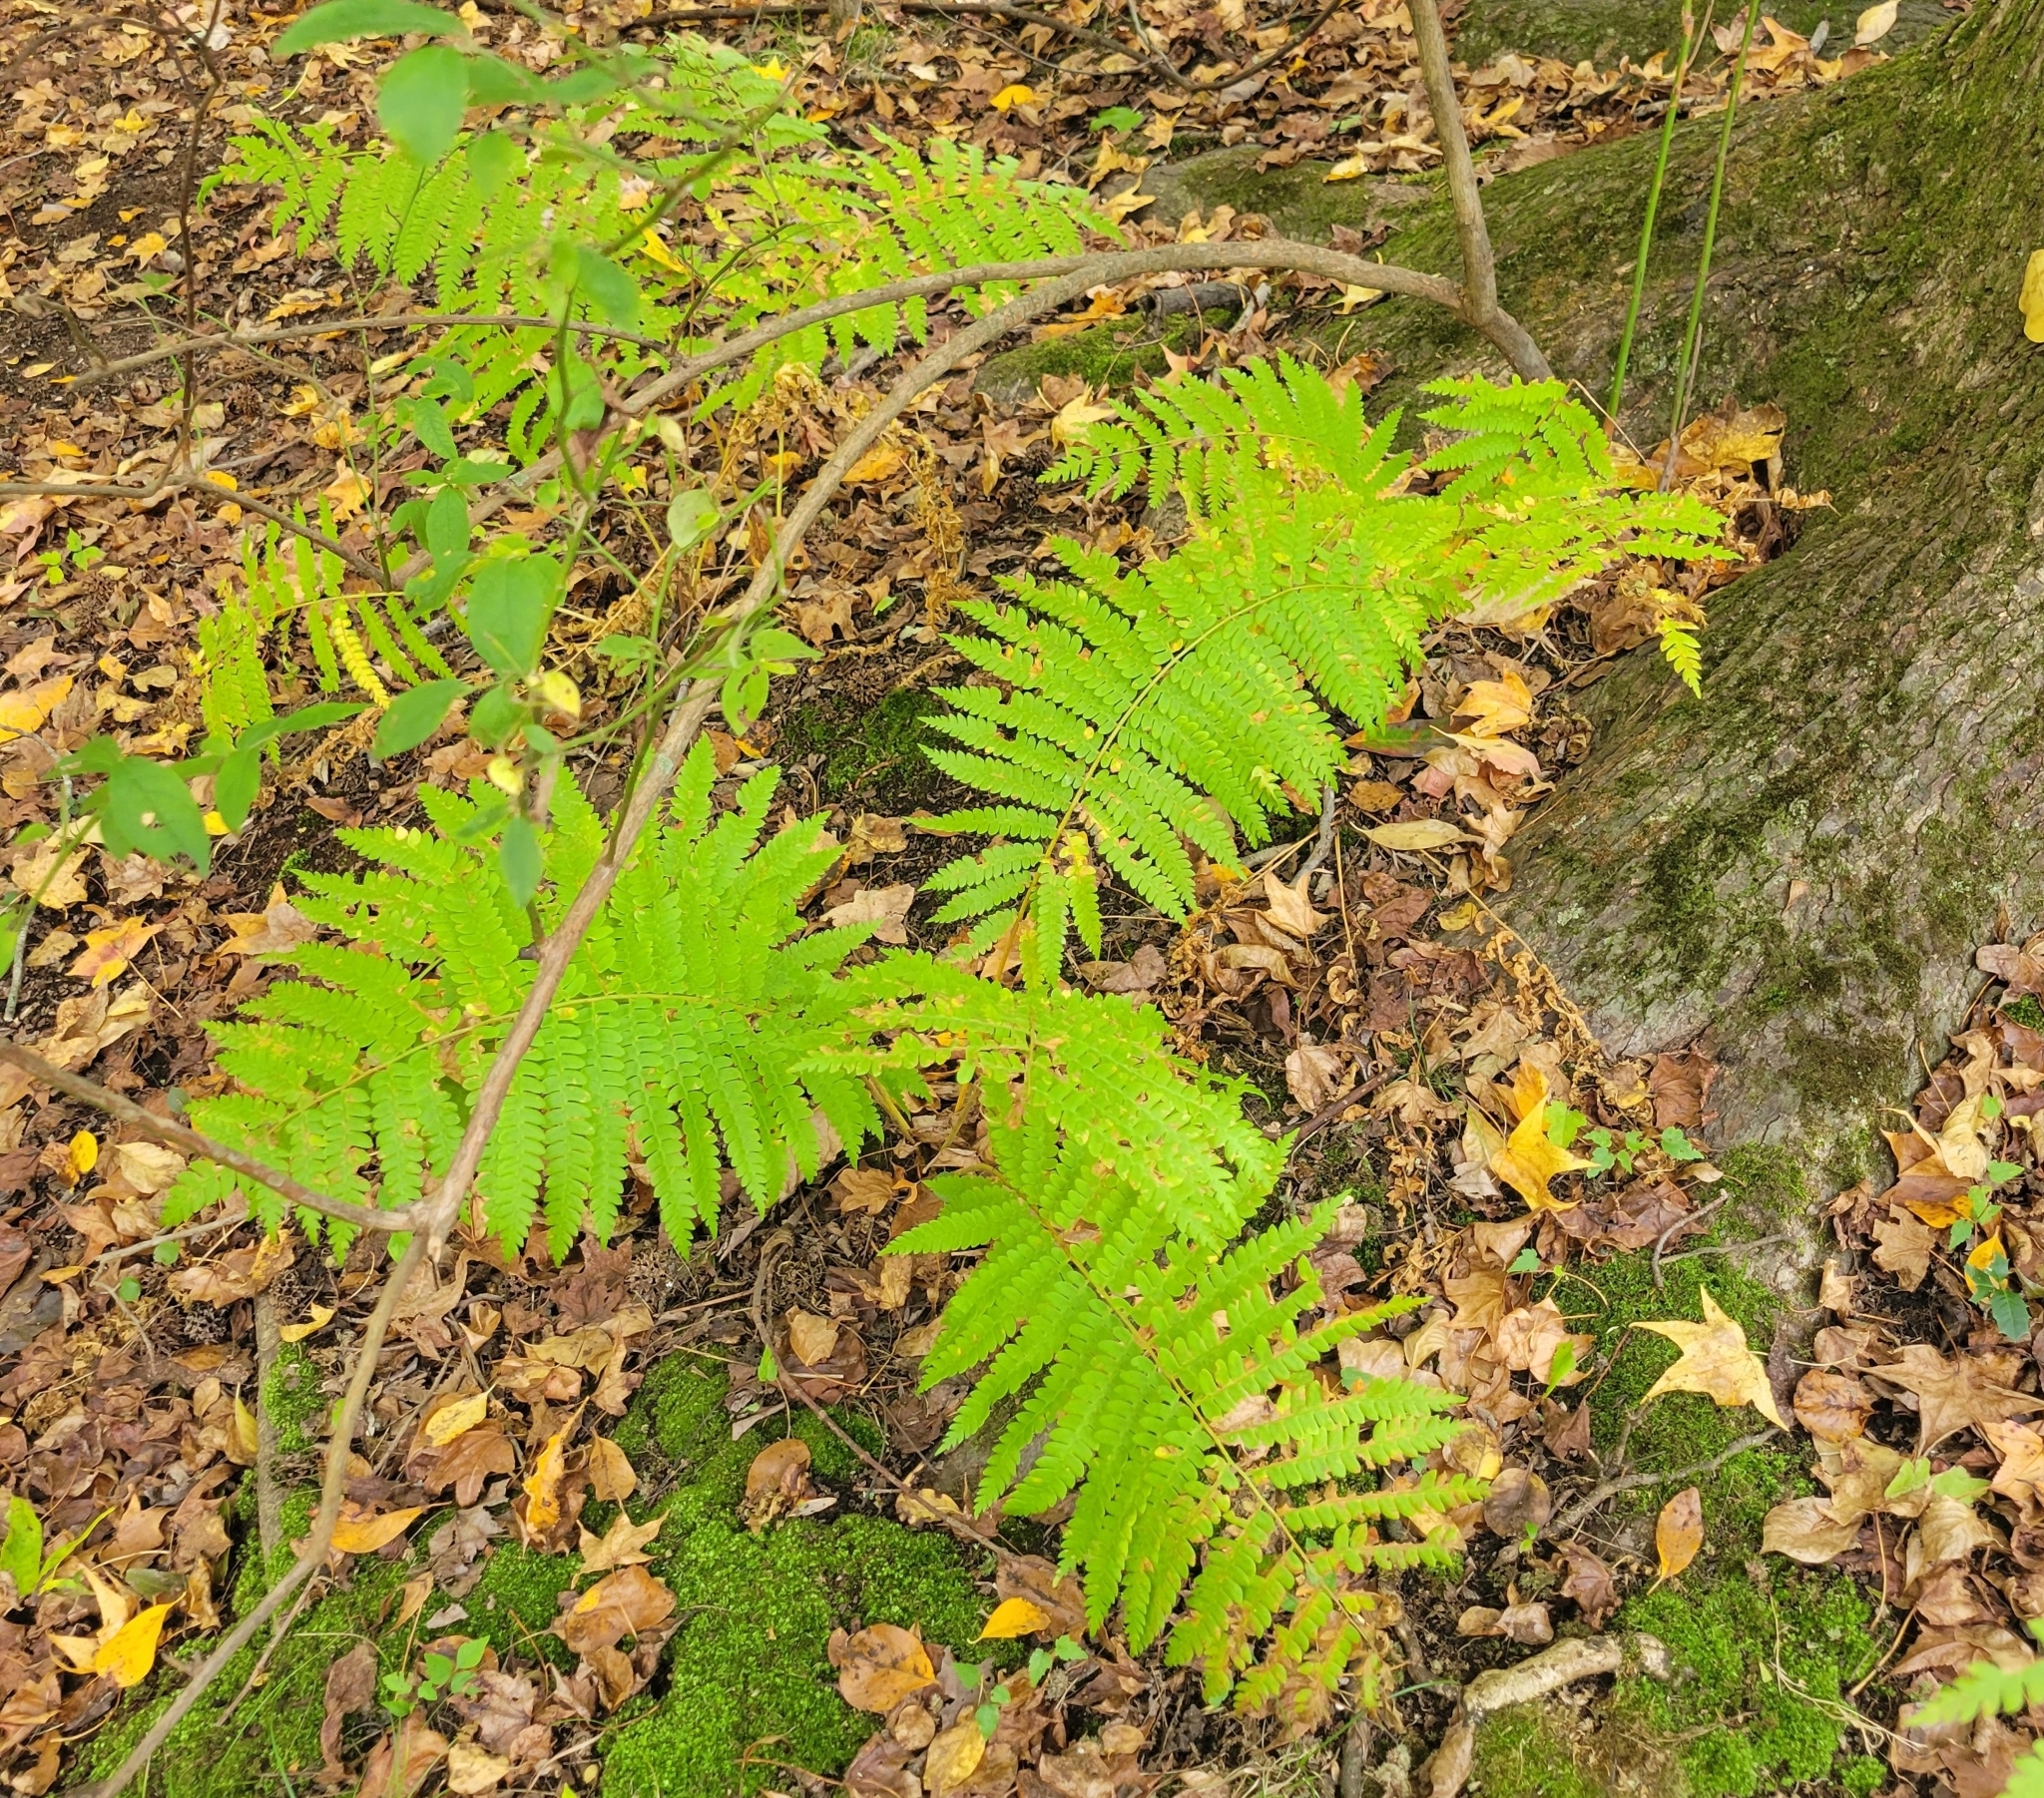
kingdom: Plantae
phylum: Tracheophyta
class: Polypodiopsida
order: Osmundales
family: Osmundaceae
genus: Osmundastrum
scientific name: Osmundastrum cinnamomeum
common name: Cinnamon fern
